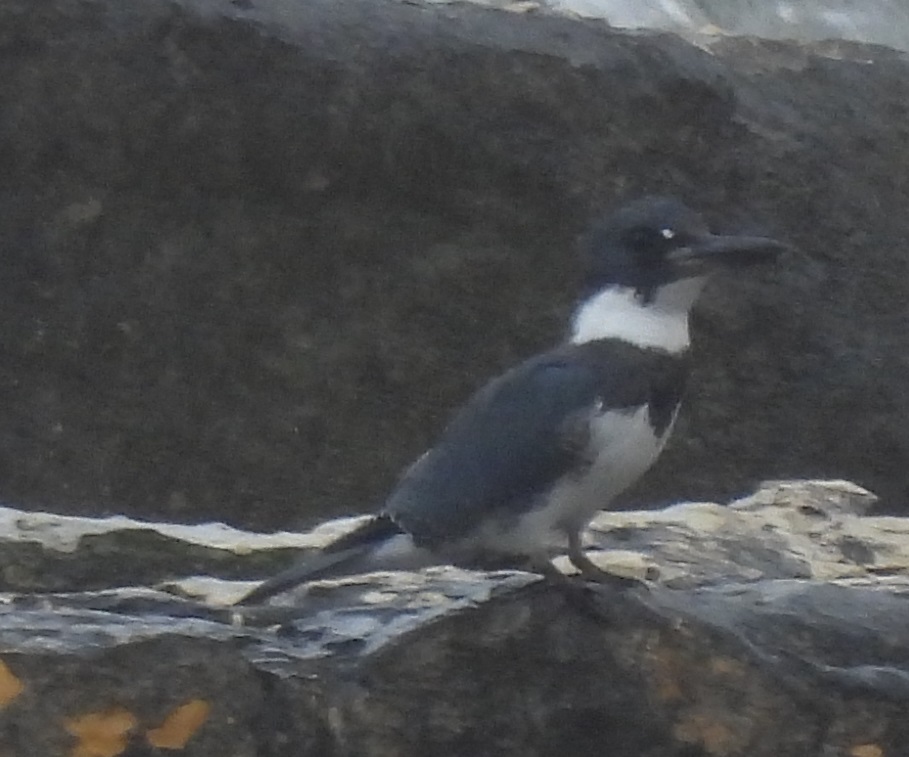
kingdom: Animalia
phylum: Chordata
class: Aves
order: Coraciiformes
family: Alcedinidae
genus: Megaceryle
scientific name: Megaceryle alcyon
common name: Belted kingfisher
